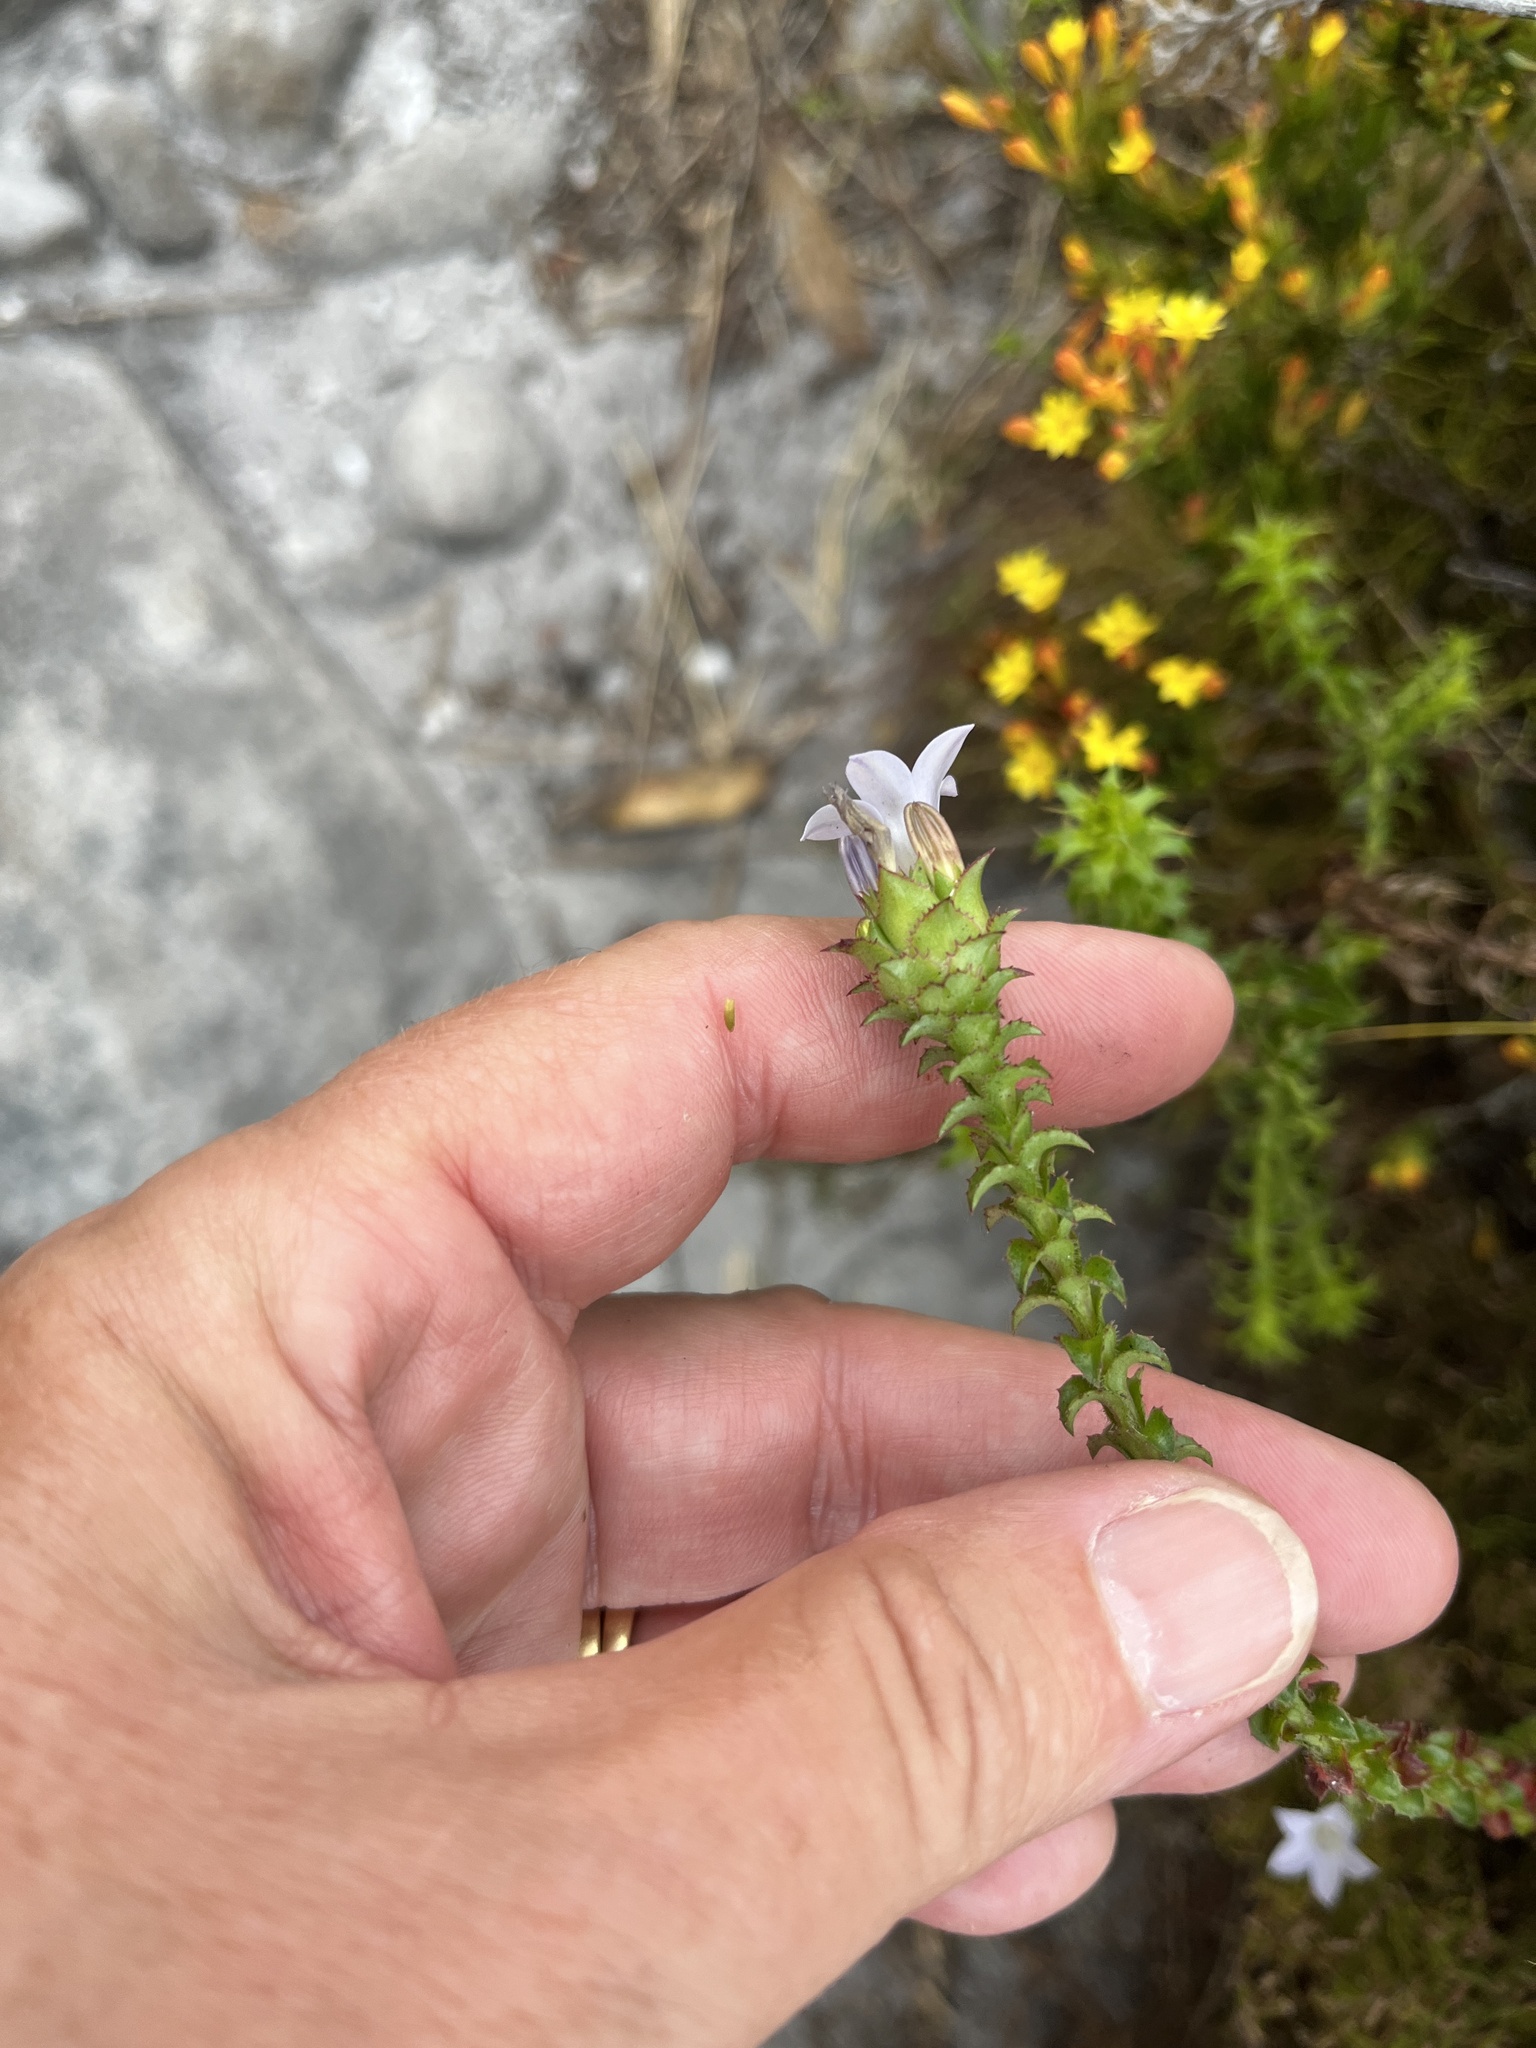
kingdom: Plantae
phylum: Tracheophyta
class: Magnoliopsida
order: Asterales
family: Campanulaceae
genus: Roella
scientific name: Roella amplexicaulis
